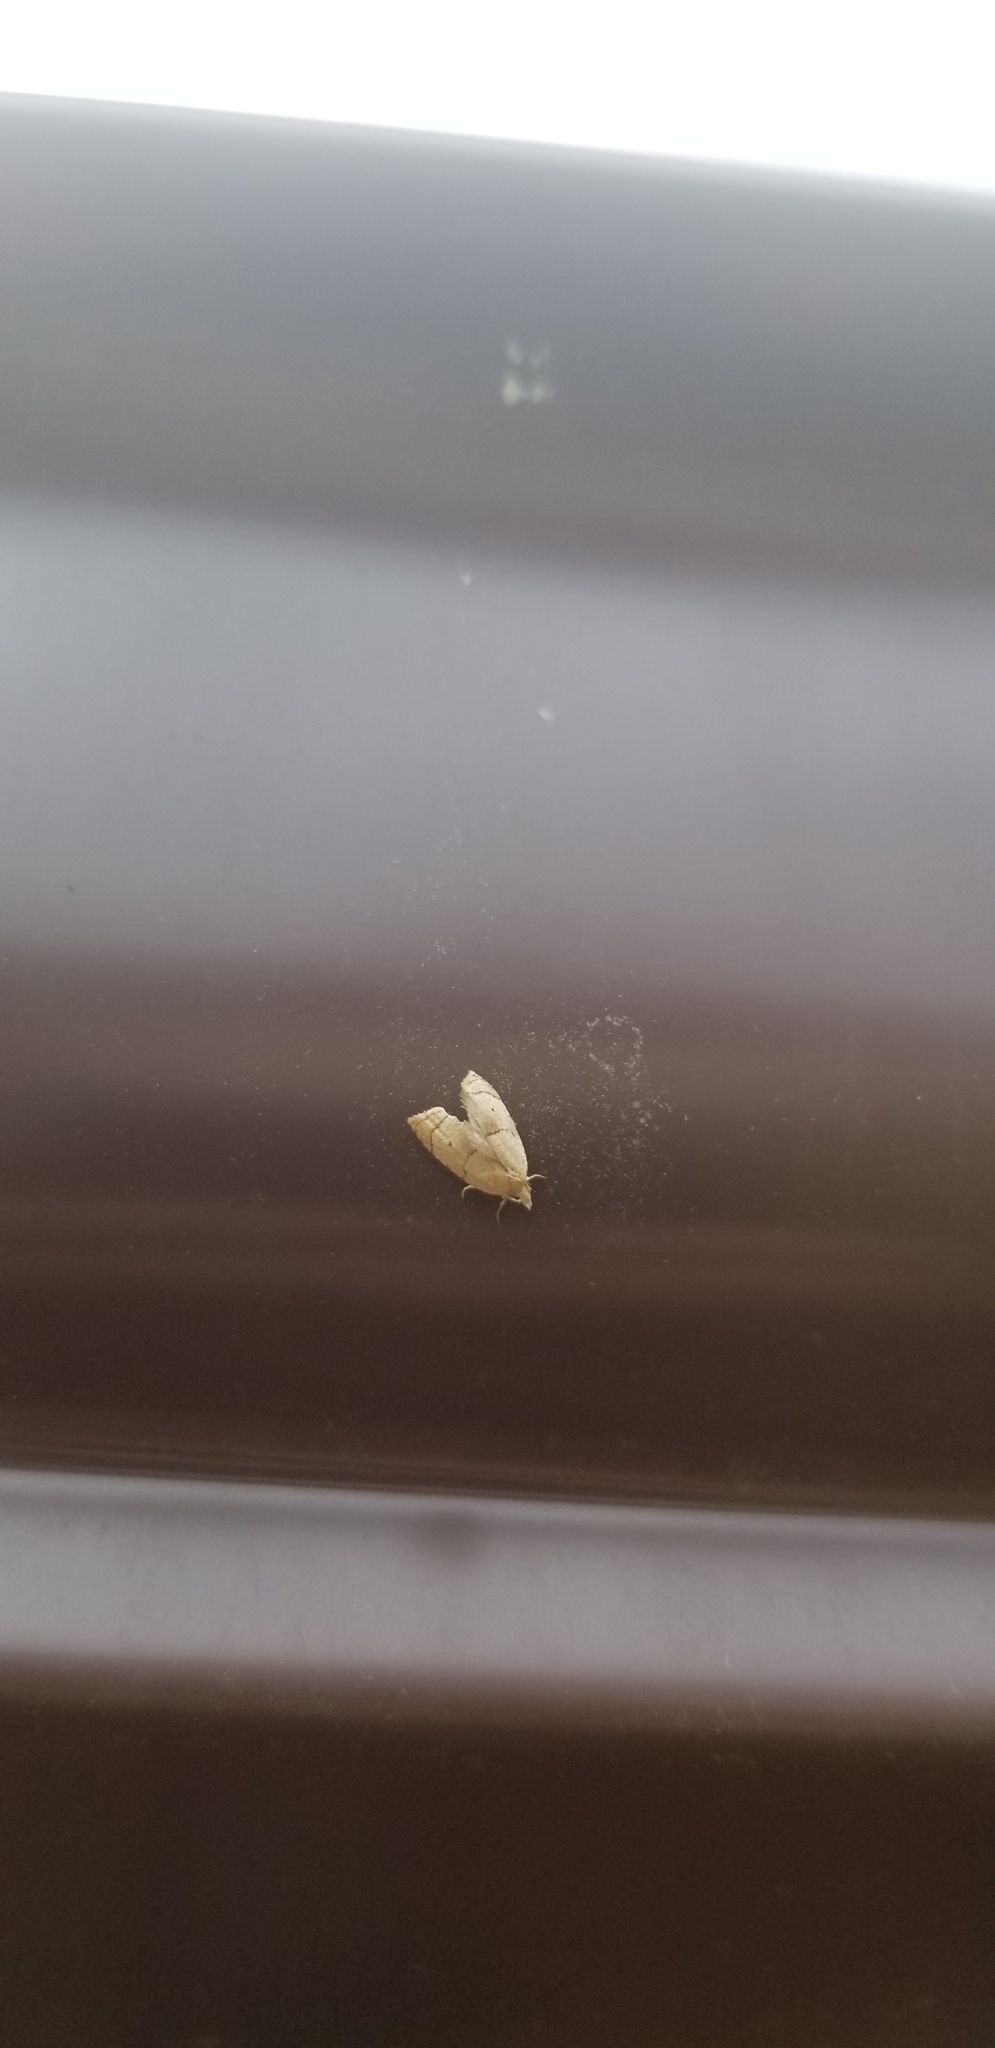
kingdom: Animalia
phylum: Arthropoda
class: Insecta
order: Lepidoptera
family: Tortricidae
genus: Coelostathma
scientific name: Coelostathma discopunctana
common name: Batman moth
